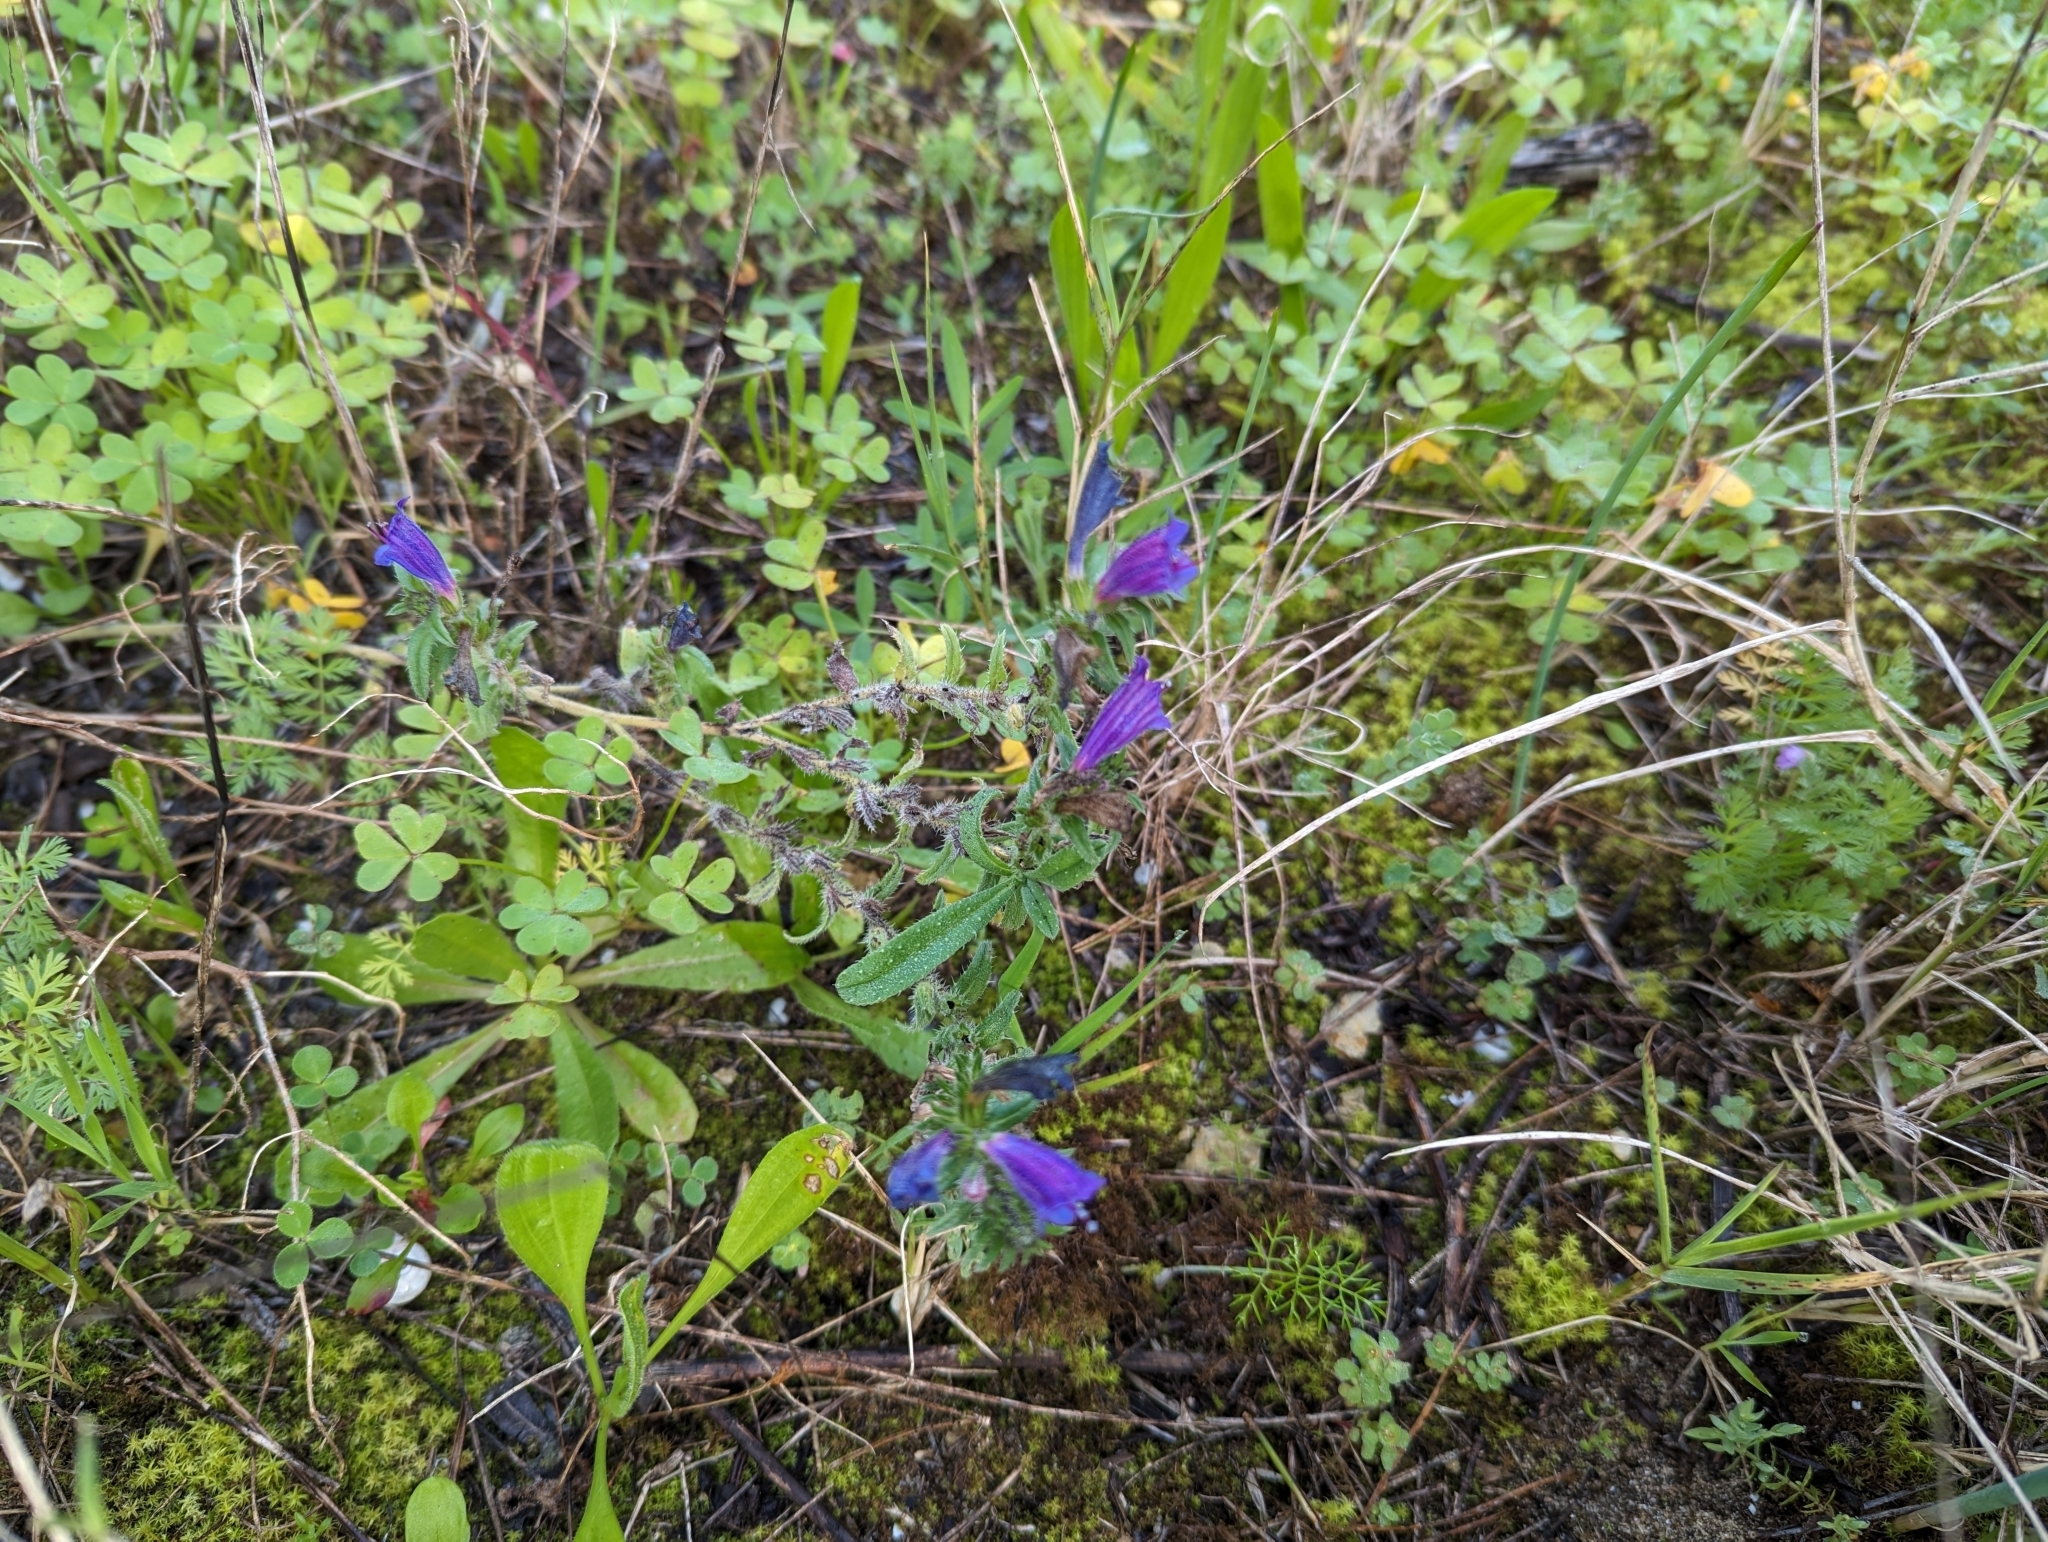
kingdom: Plantae
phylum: Tracheophyta
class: Magnoliopsida
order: Boraginales
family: Boraginaceae
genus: Echium
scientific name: Echium tuberculatum
